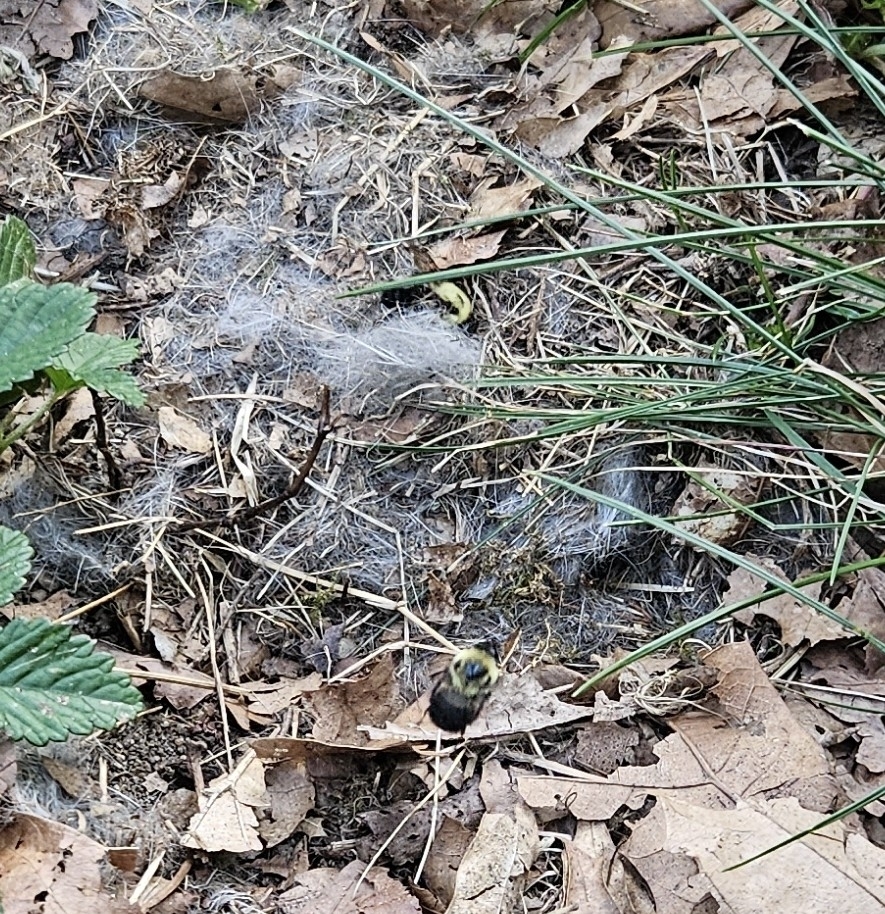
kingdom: Animalia
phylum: Arthropoda
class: Insecta
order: Hymenoptera
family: Apidae
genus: Bombus
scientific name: Bombus griseocollis
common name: Brown-belted bumble bee
